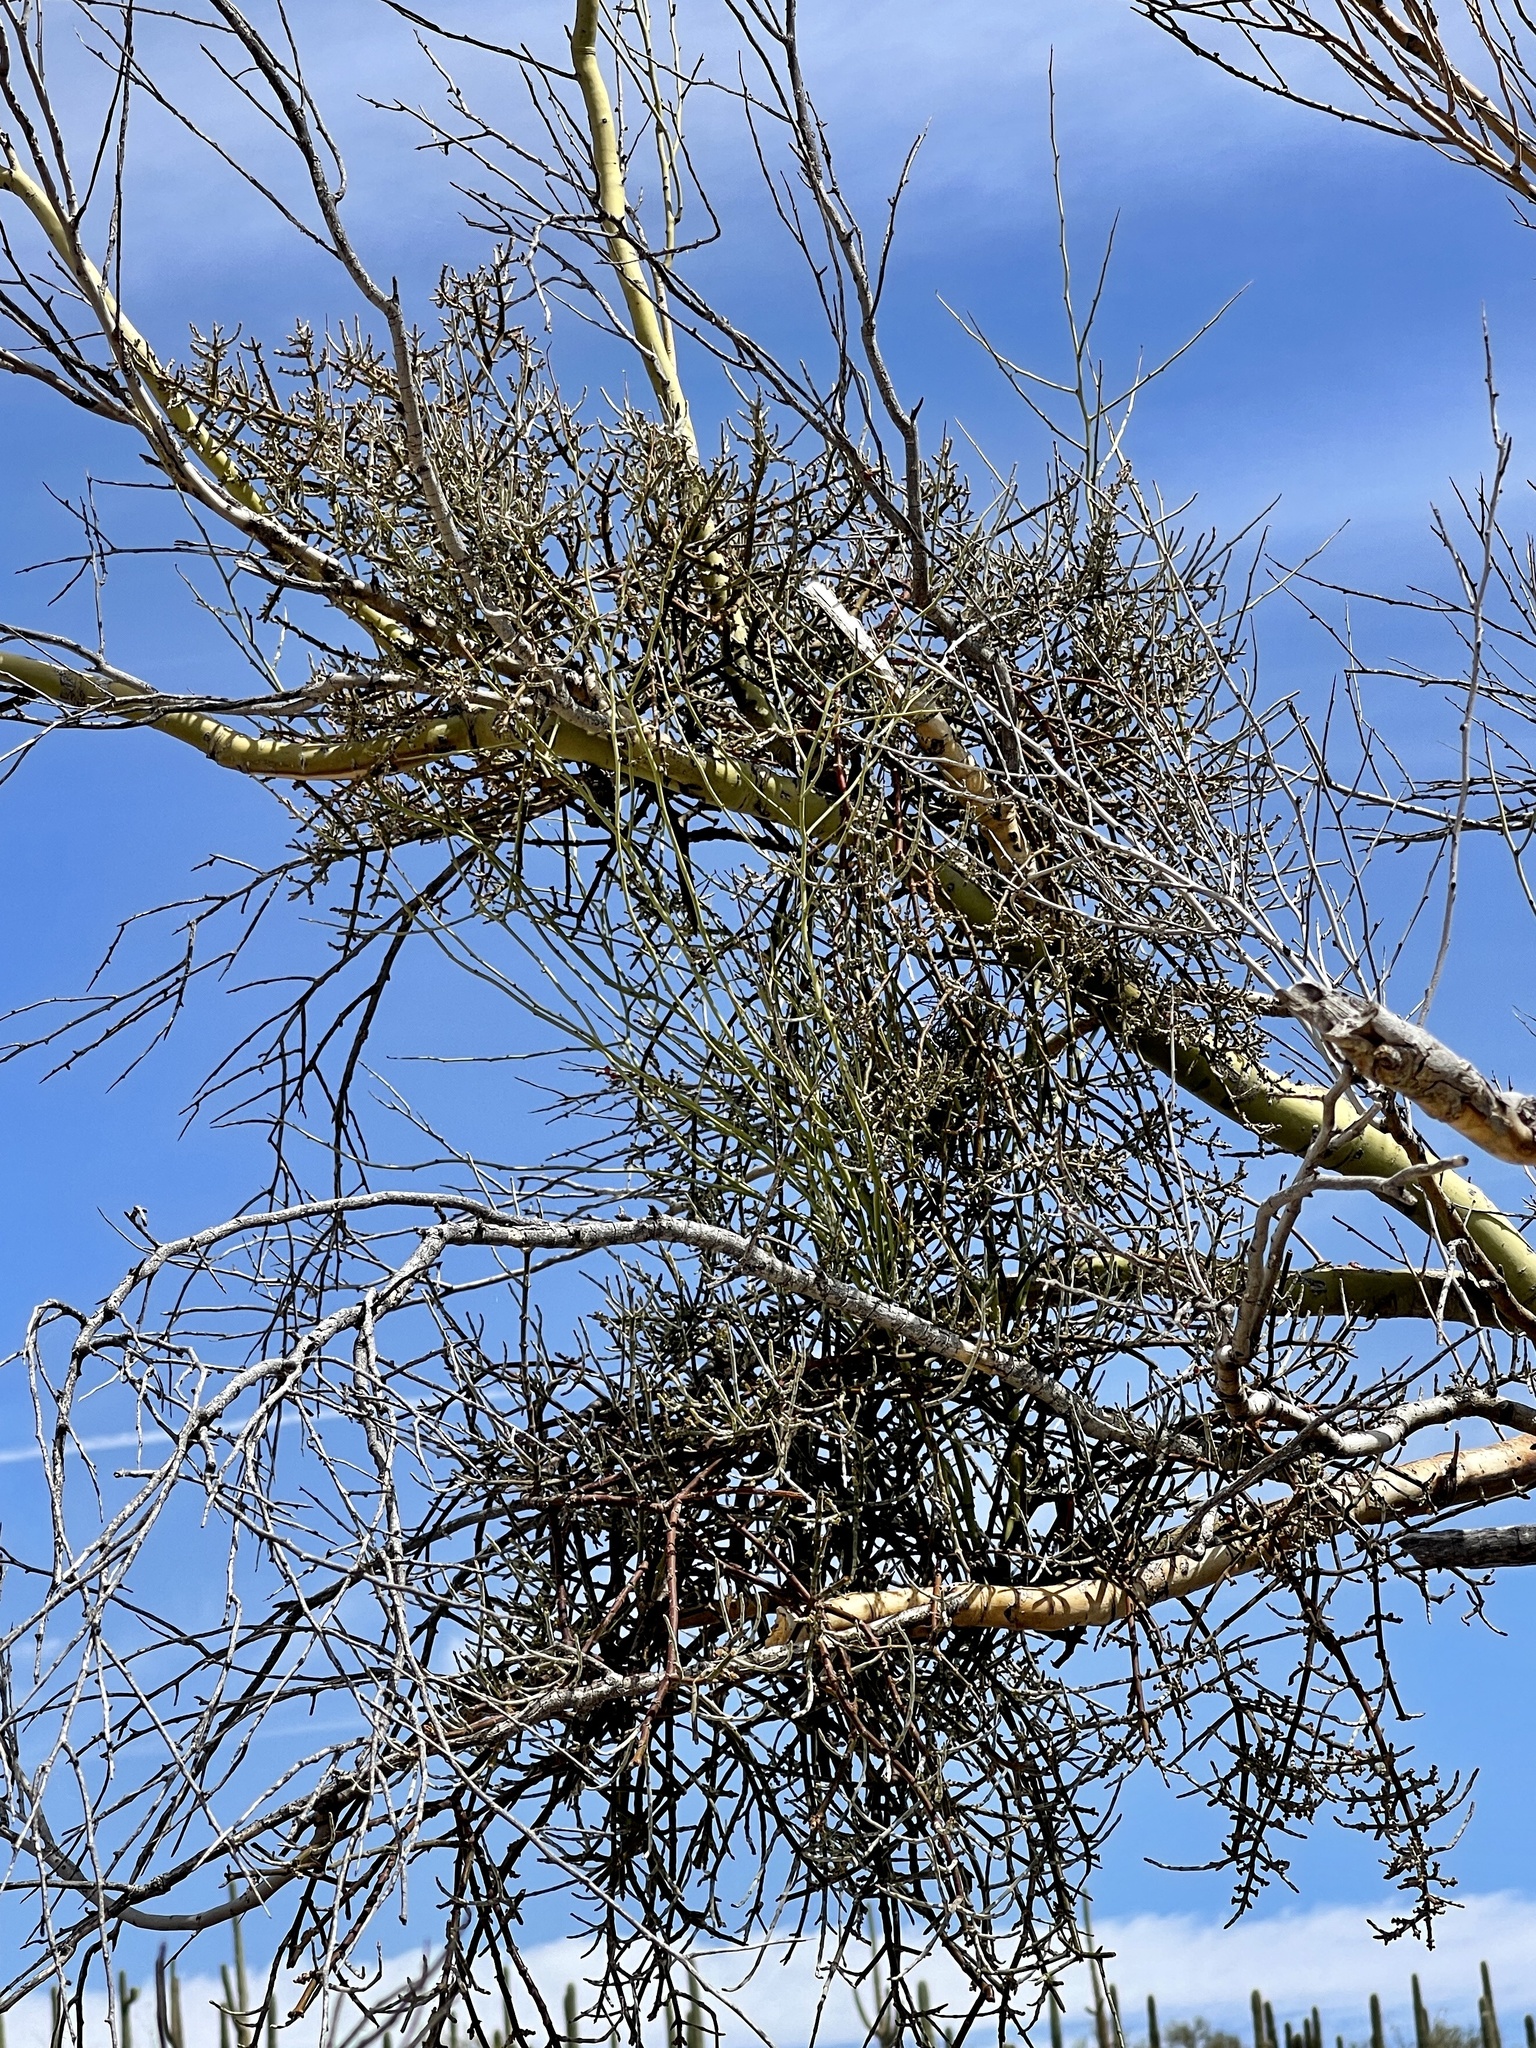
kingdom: Plantae
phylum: Tracheophyta
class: Magnoliopsida
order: Santalales
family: Viscaceae
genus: Phoradendron
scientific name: Phoradendron californicum
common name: Acacia mistletoe
